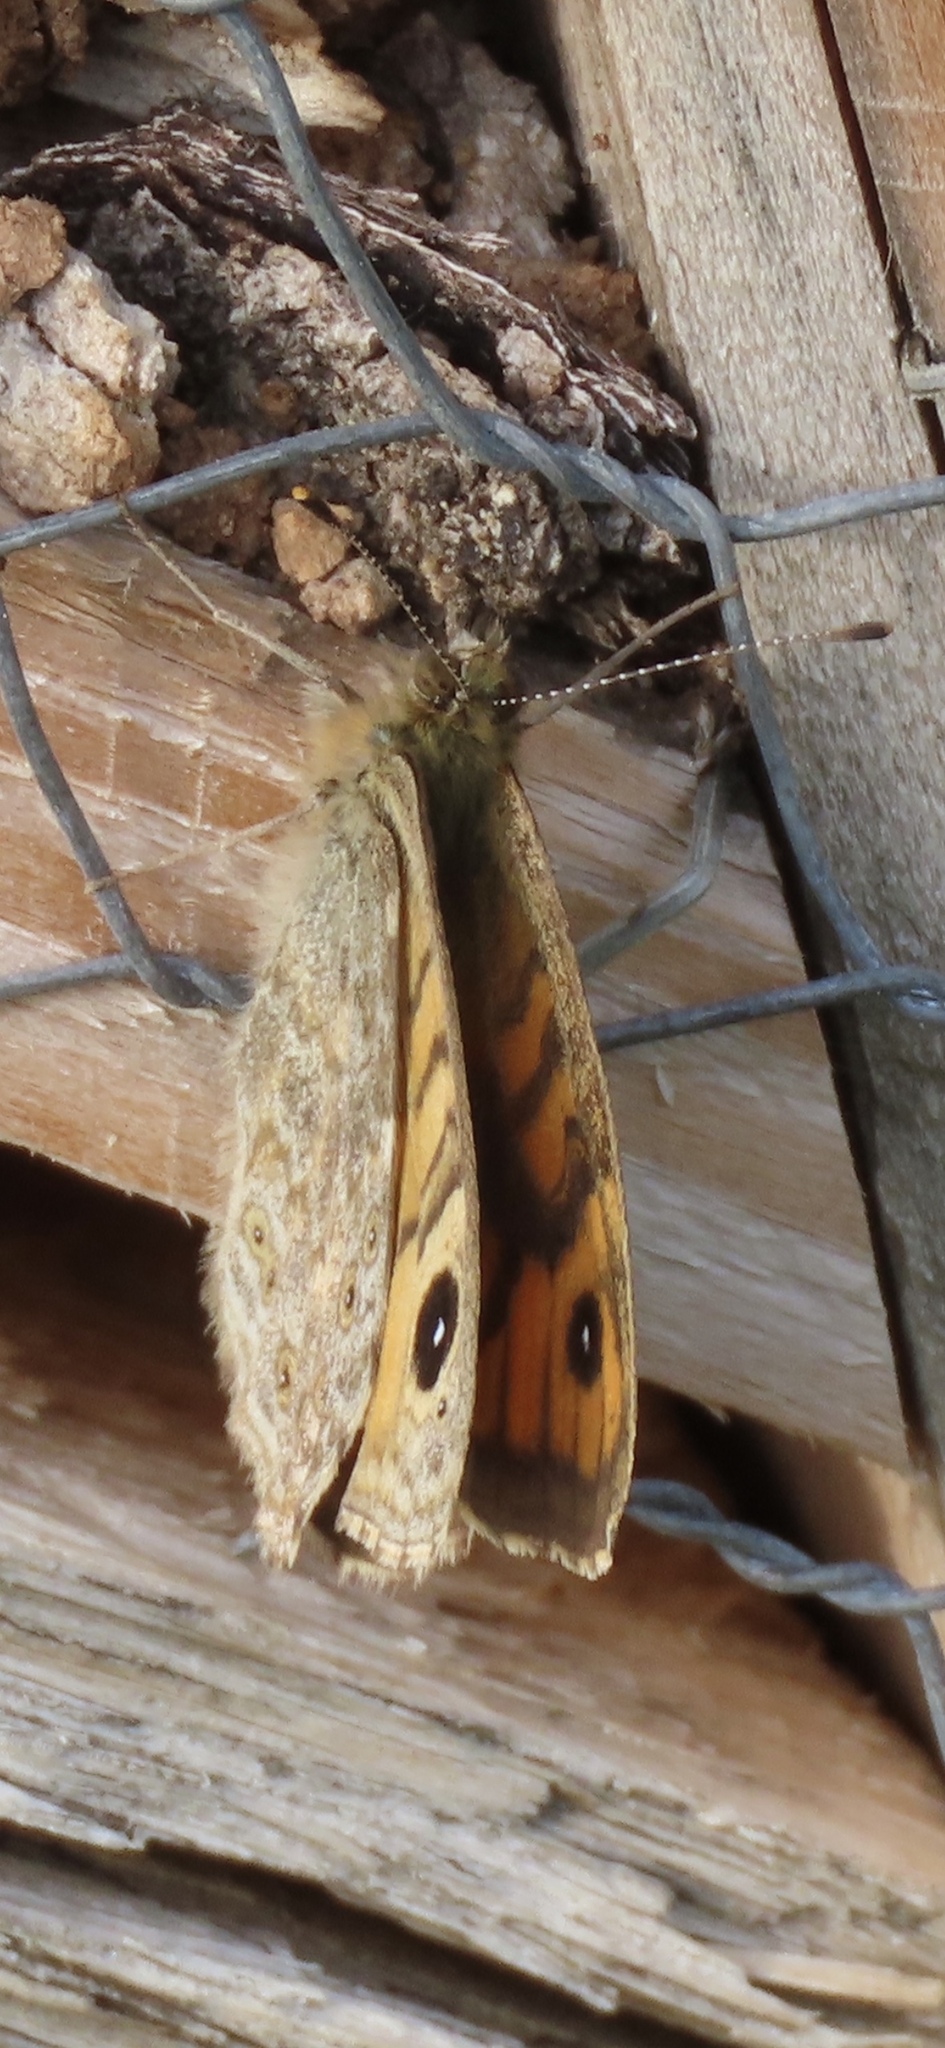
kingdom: Animalia
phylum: Arthropoda
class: Insecta
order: Lepidoptera
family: Nymphalidae
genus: Pararge
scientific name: Pararge Lasiommata megera
